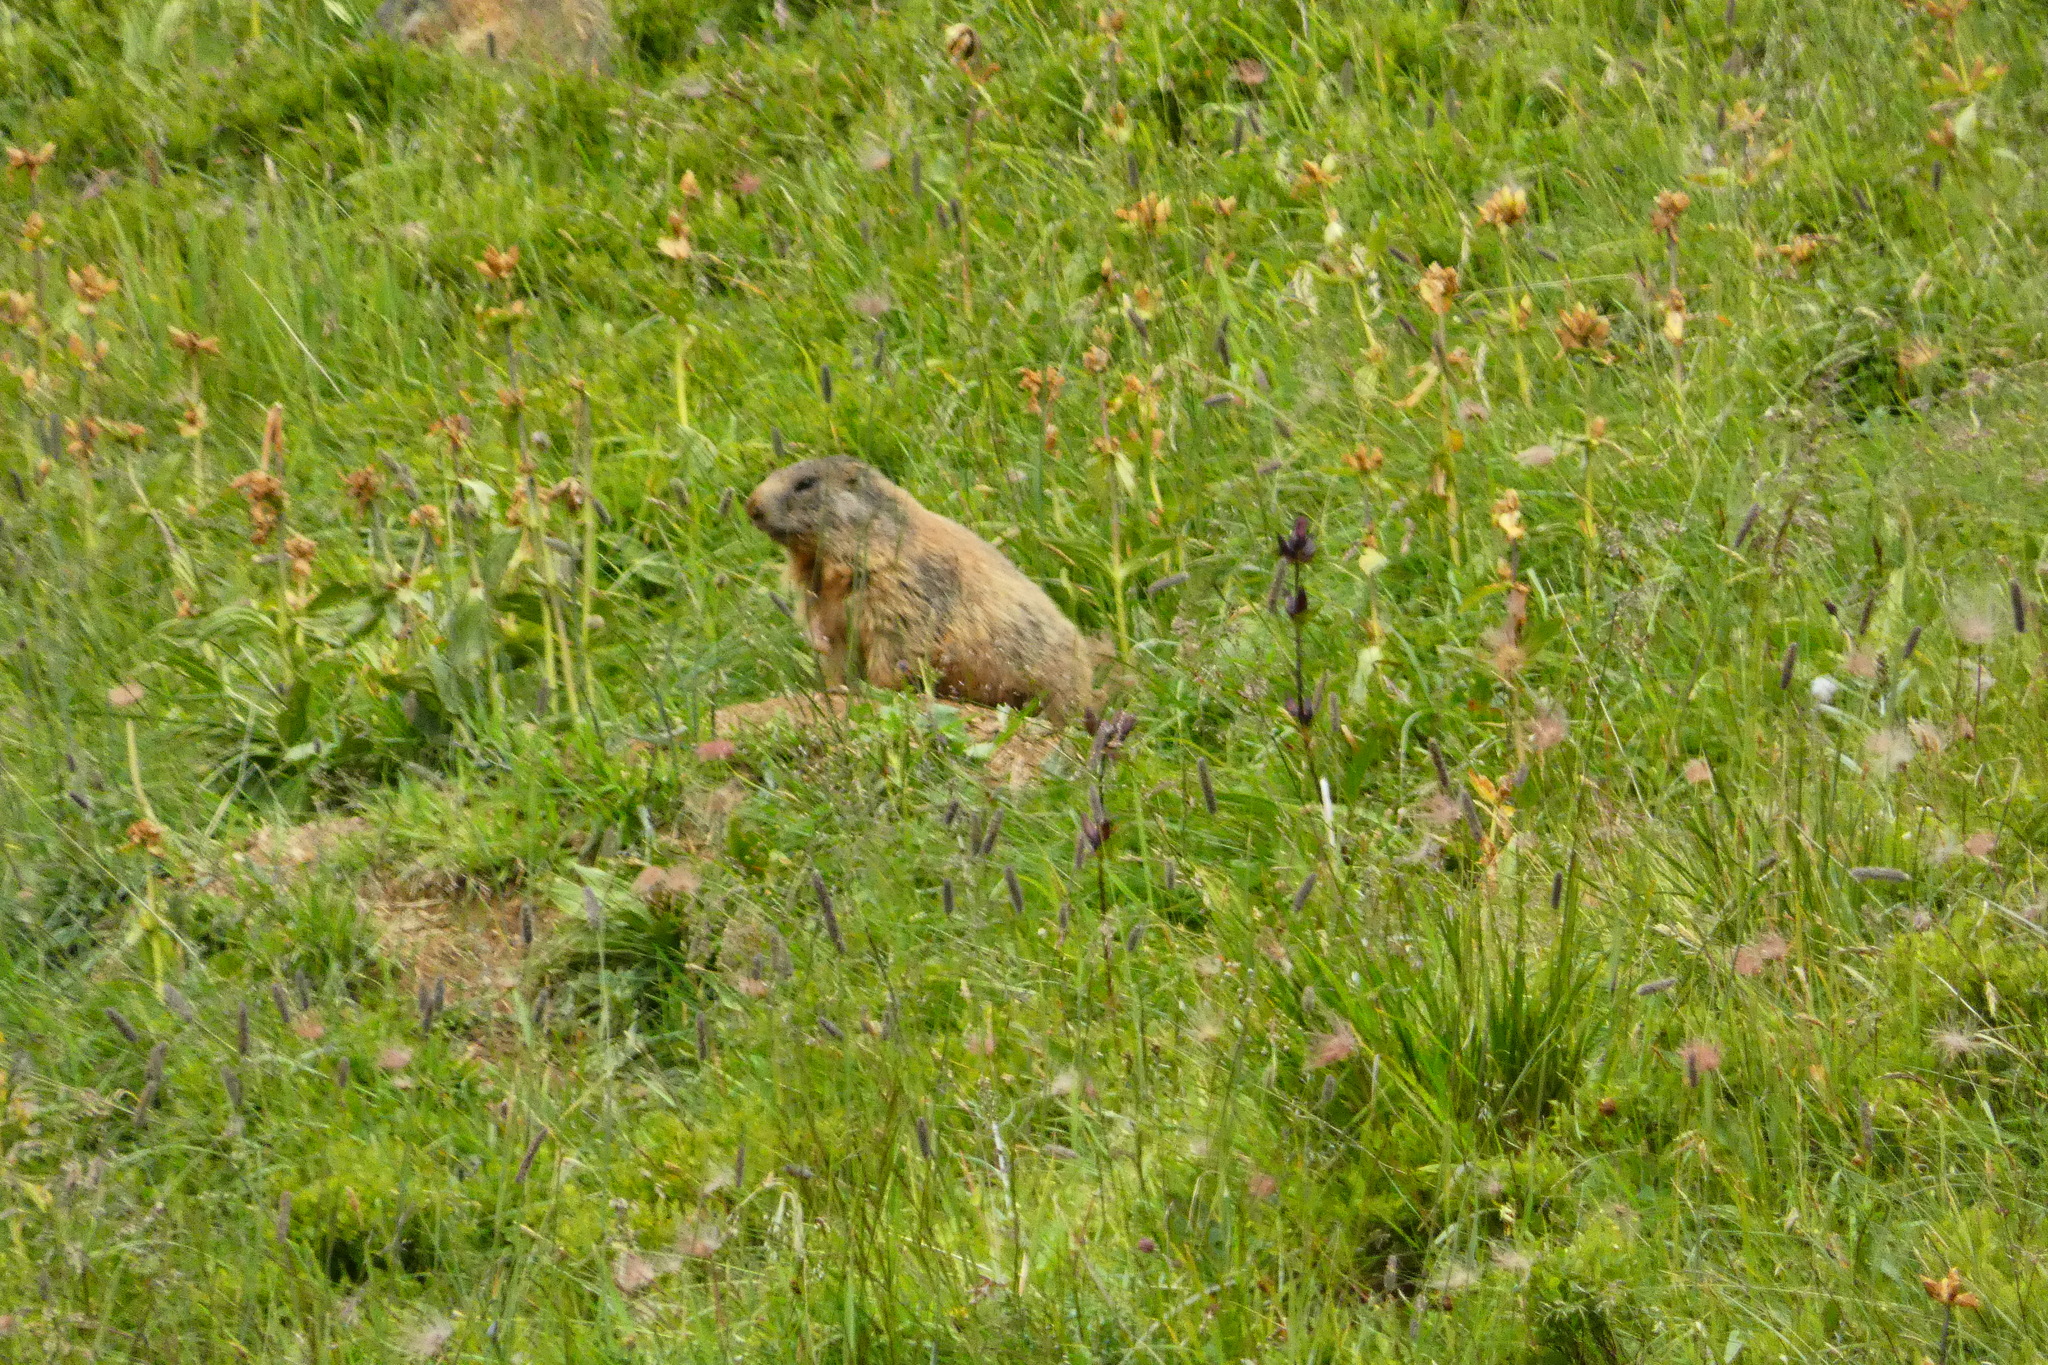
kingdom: Animalia
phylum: Chordata
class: Mammalia
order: Rodentia
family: Sciuridae
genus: Marmota
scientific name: Marmota marmota
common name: Alpine marmot
